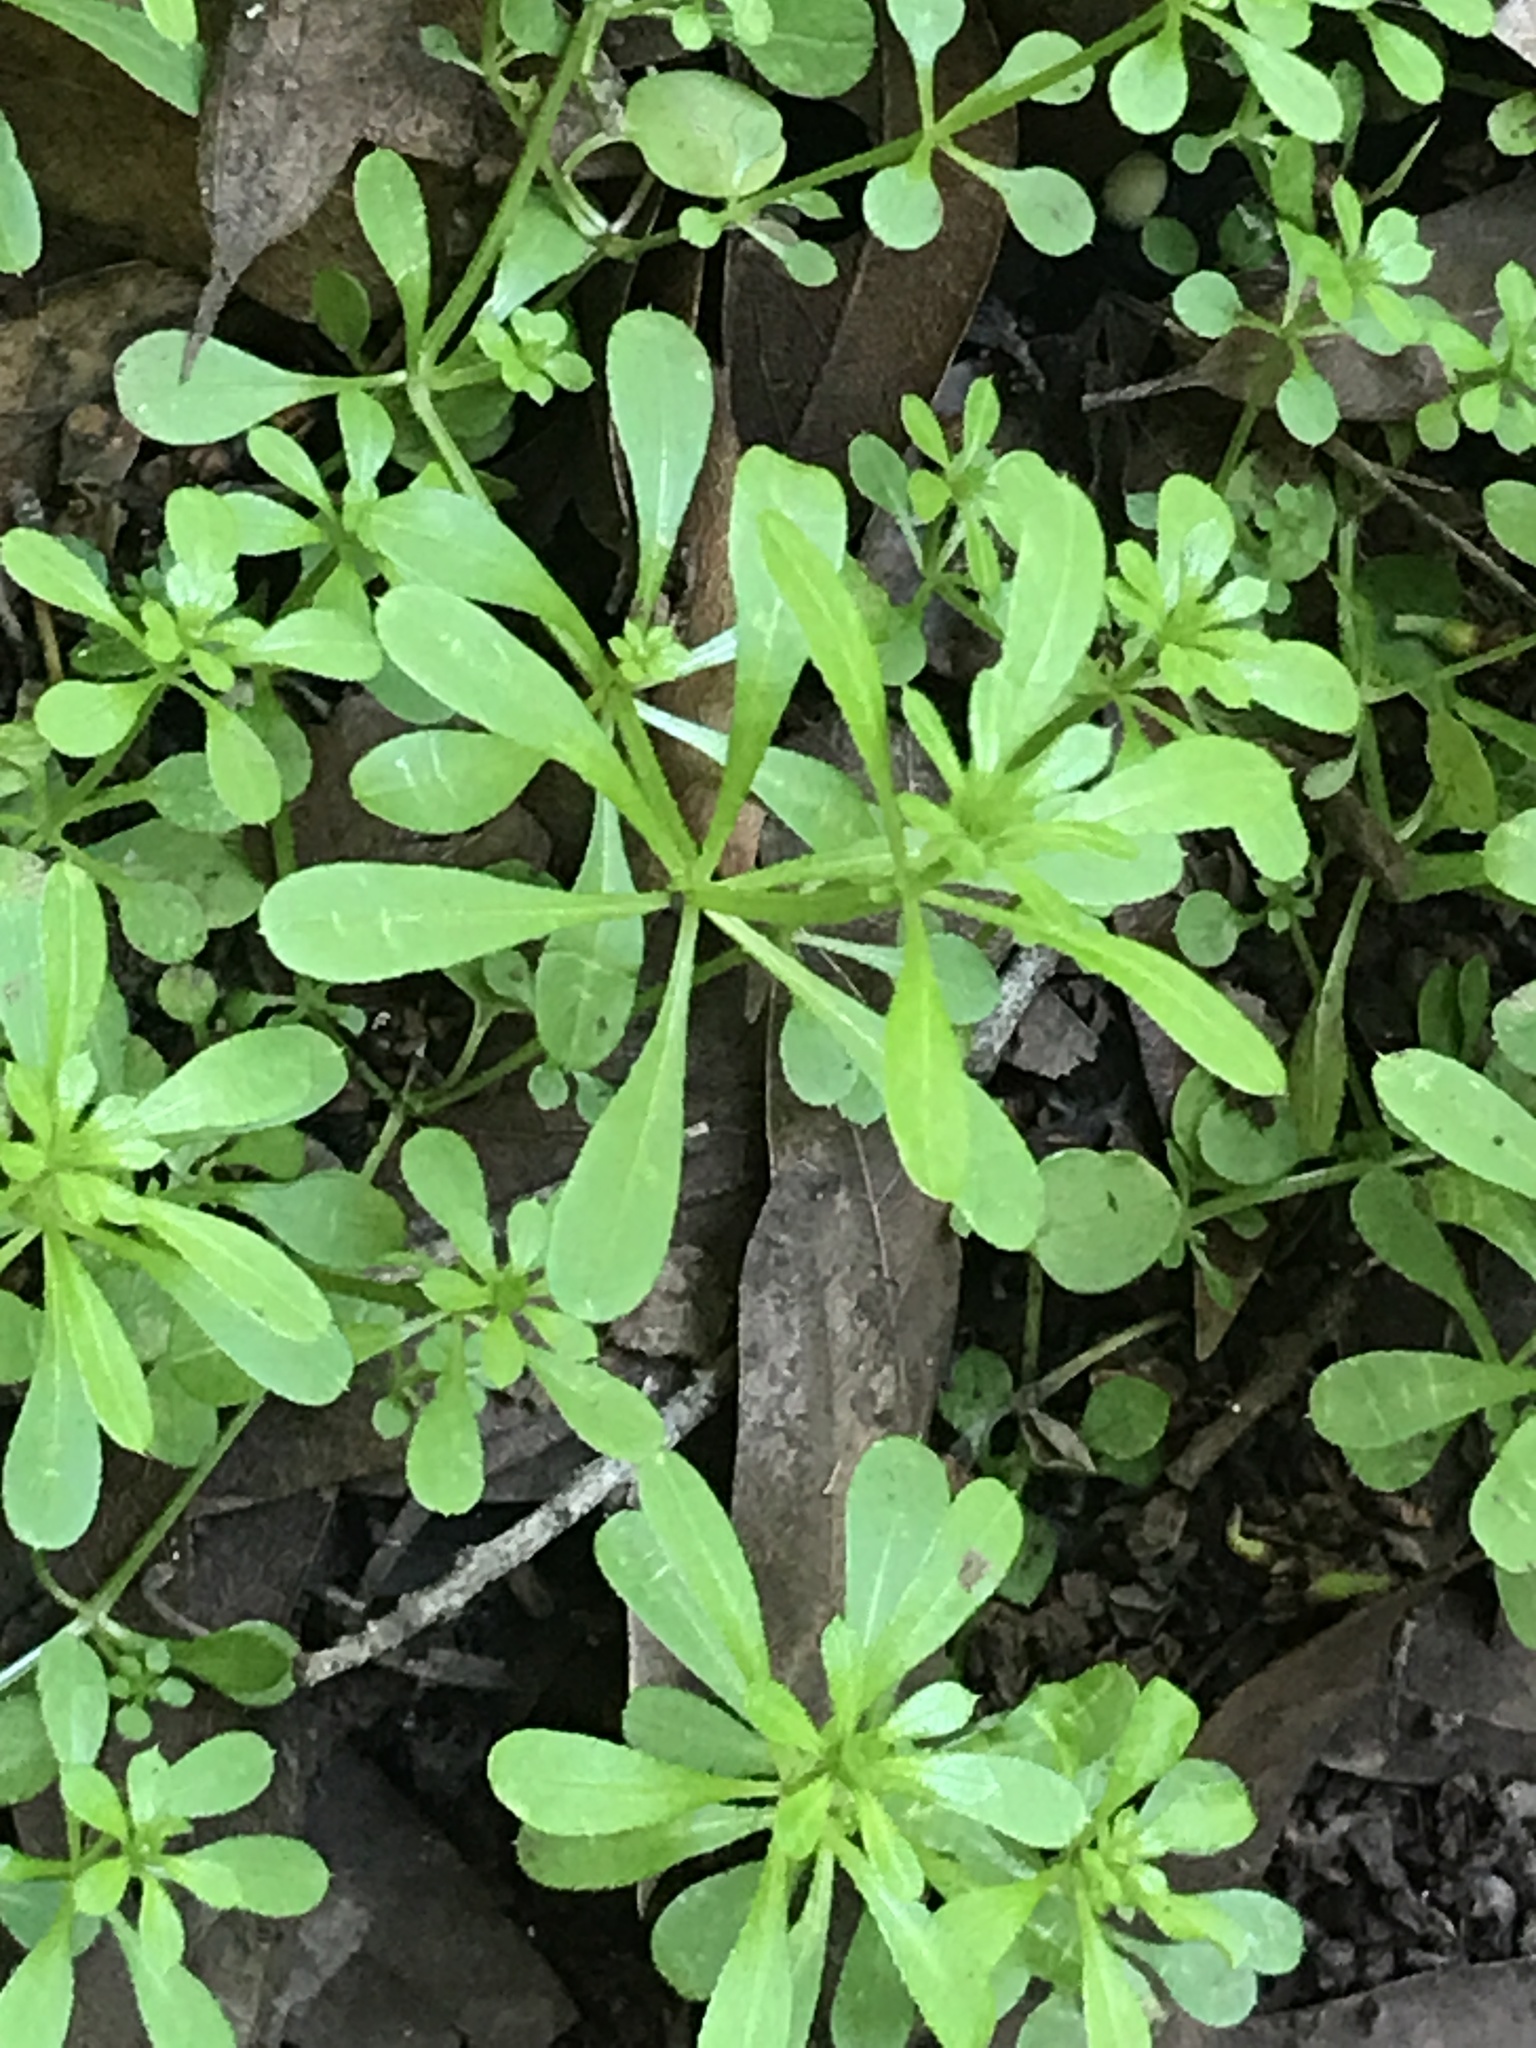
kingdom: Plantae
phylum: Tracheophyta
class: Magnoliopsida
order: Gentianales
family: Rubiaceae
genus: Galium
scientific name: Galium aparine
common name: Cleavers
